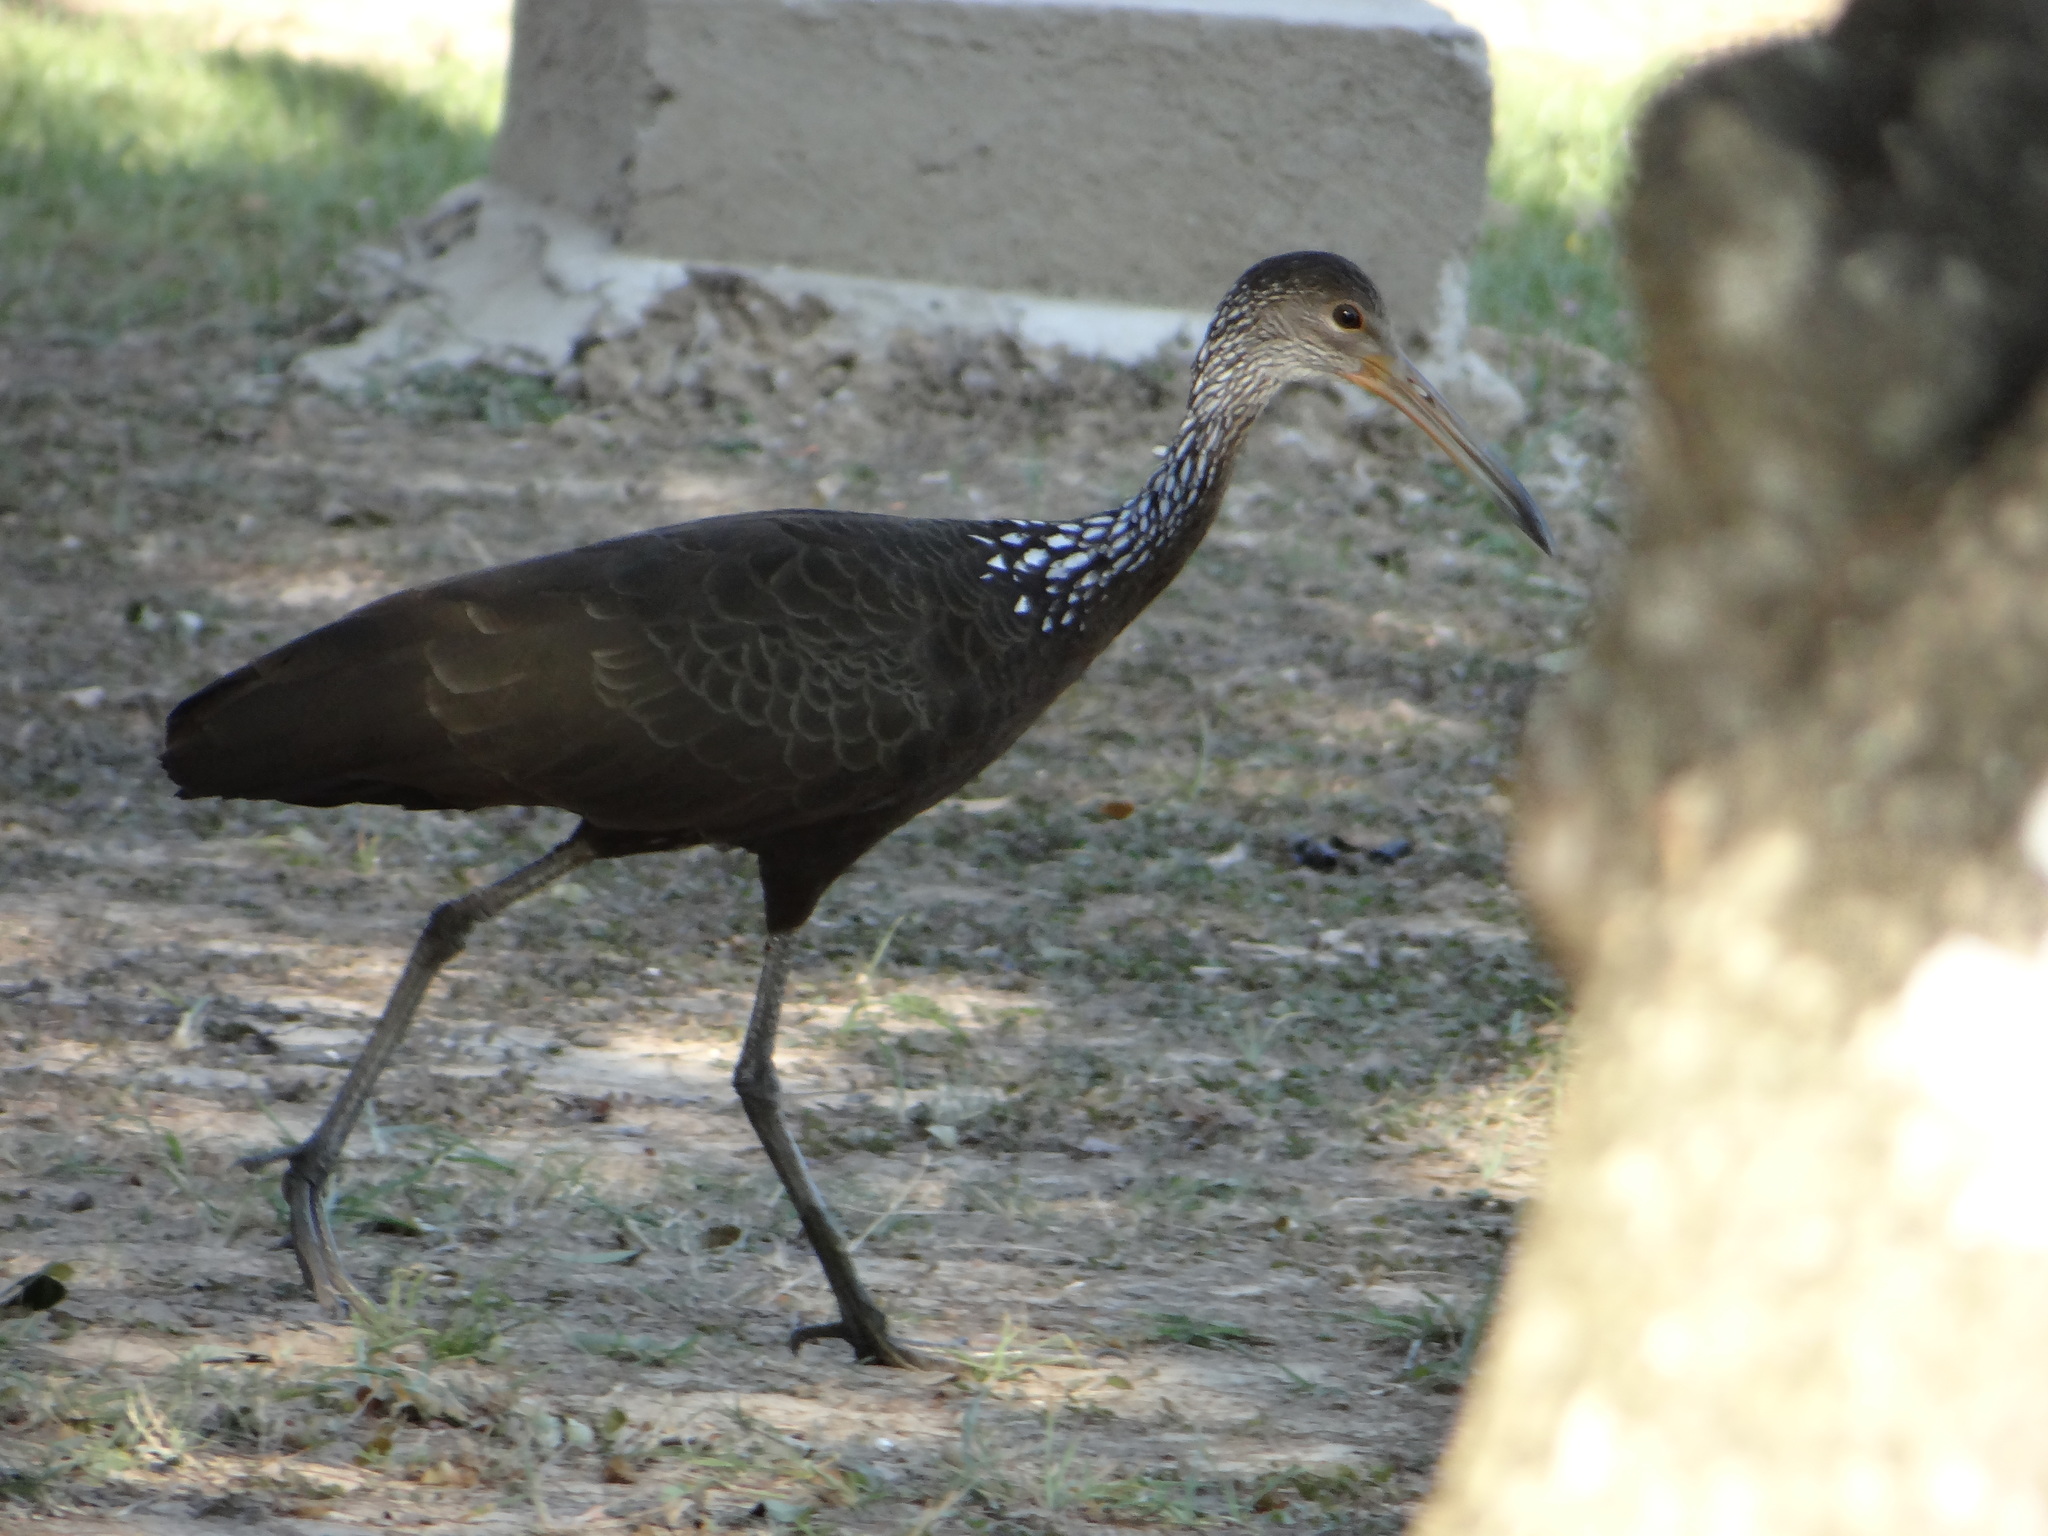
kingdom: Animalia
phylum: Chordata
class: Aves
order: Gruiformes
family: Aramidae
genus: Aramus
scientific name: Aramus guarauna
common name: Limpkin
